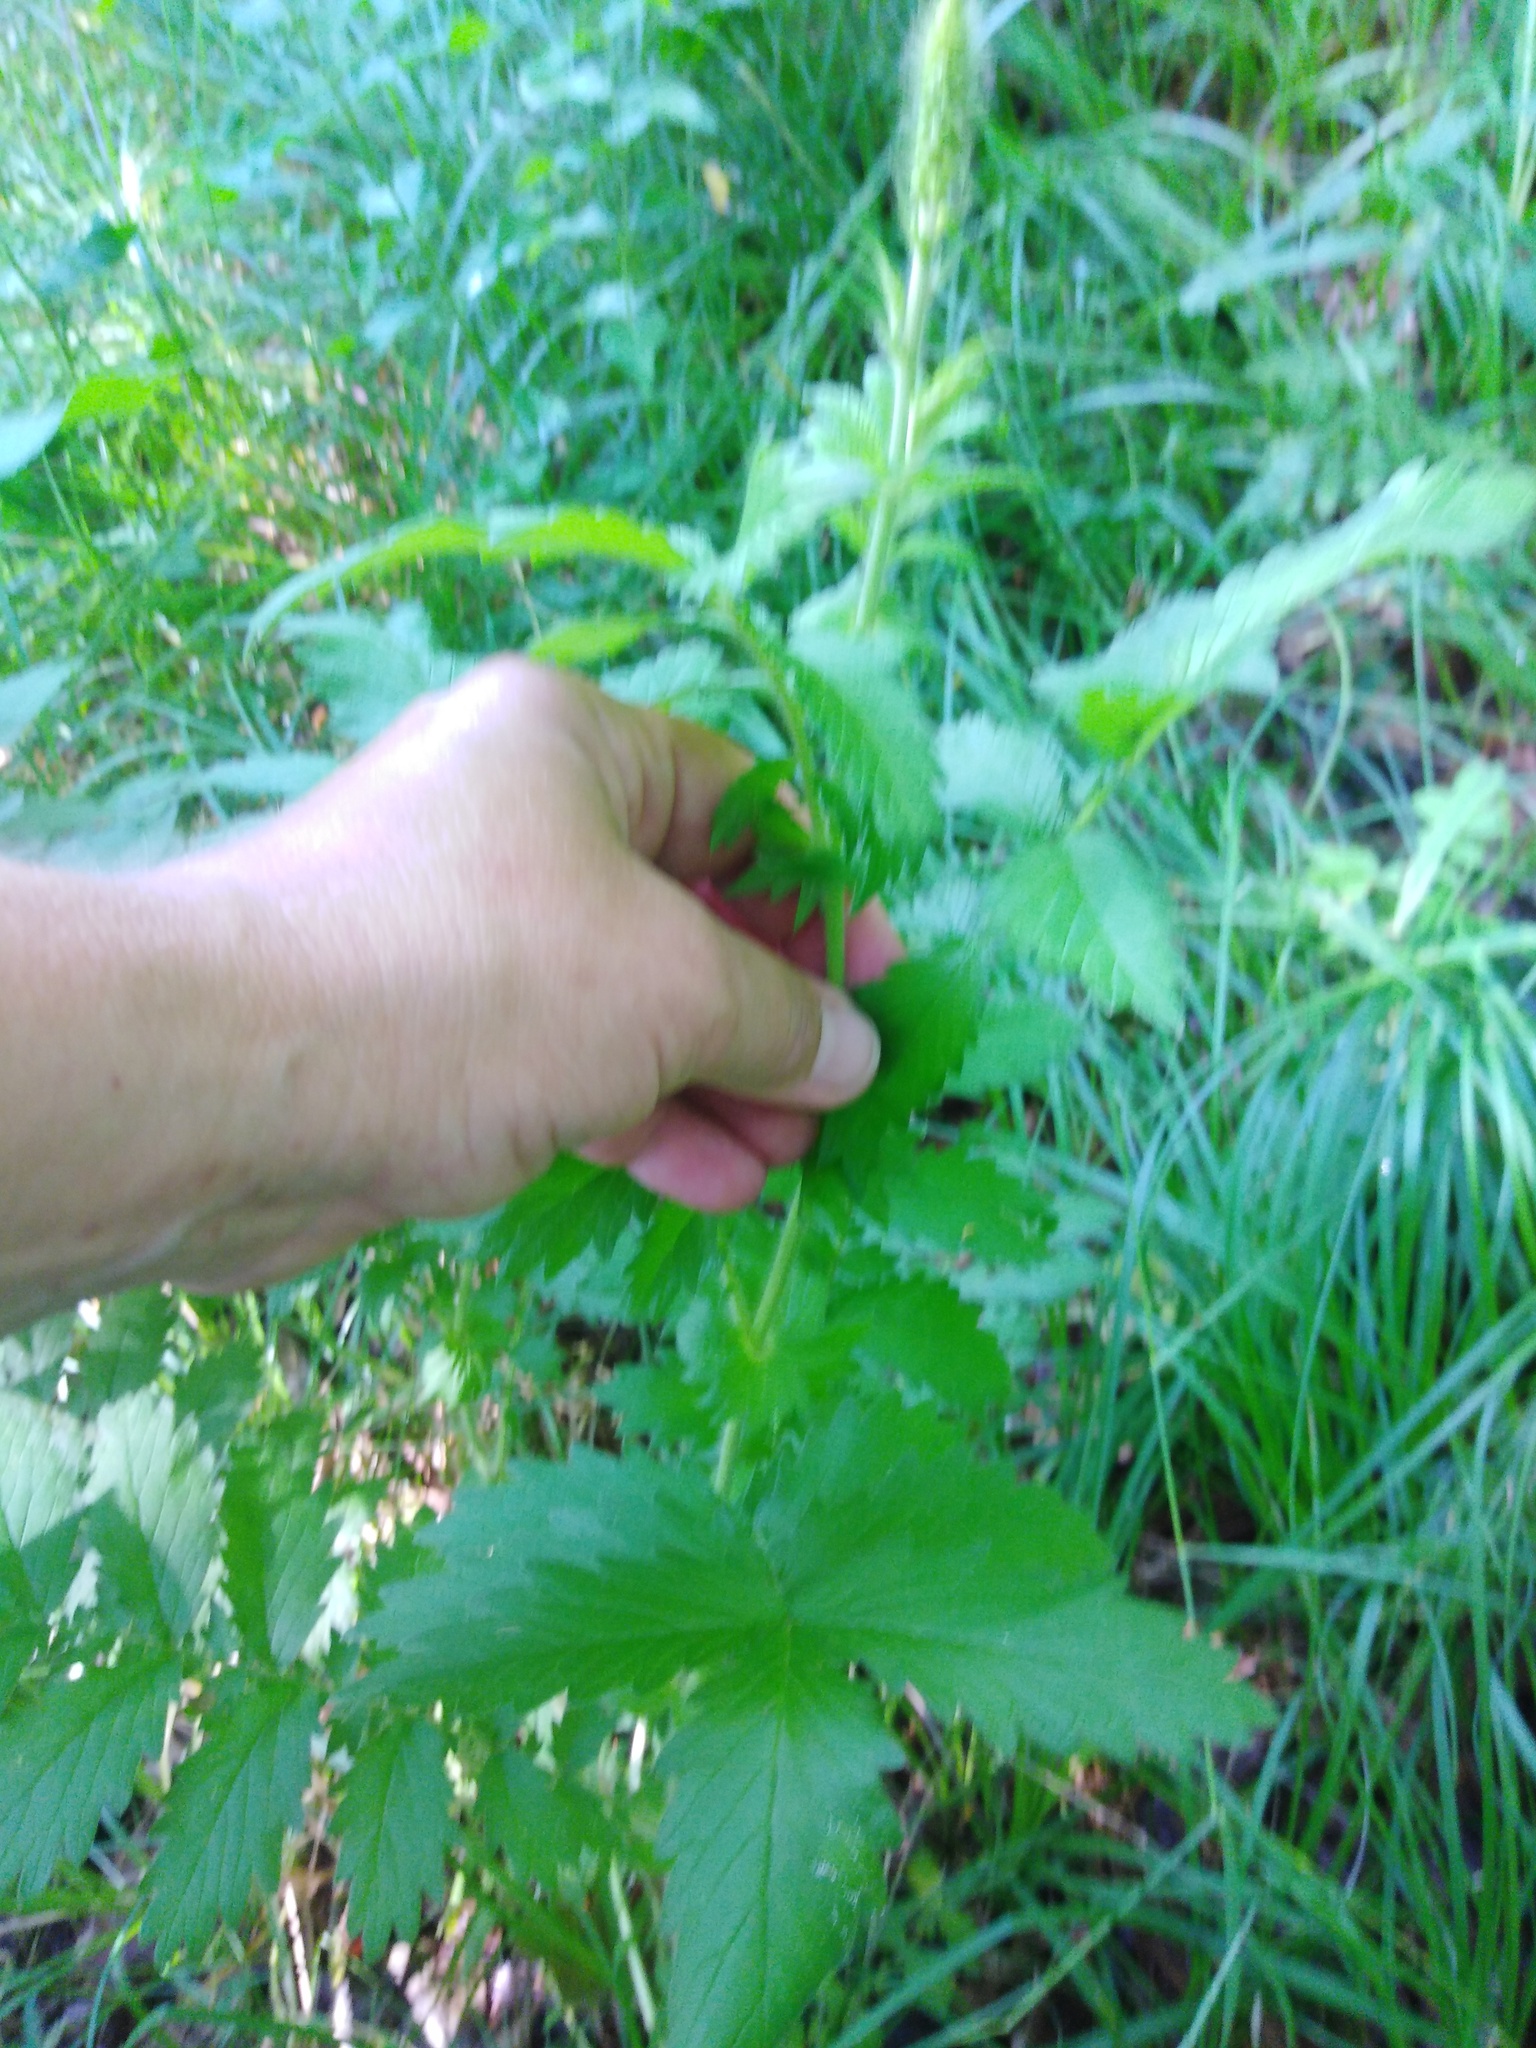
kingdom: Plantae
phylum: Tracheophyta
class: Magnoliopsida
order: Rosales
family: Rosaceae
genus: Agrimonia
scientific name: Agrimonia eupatoria
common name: Agrimony
